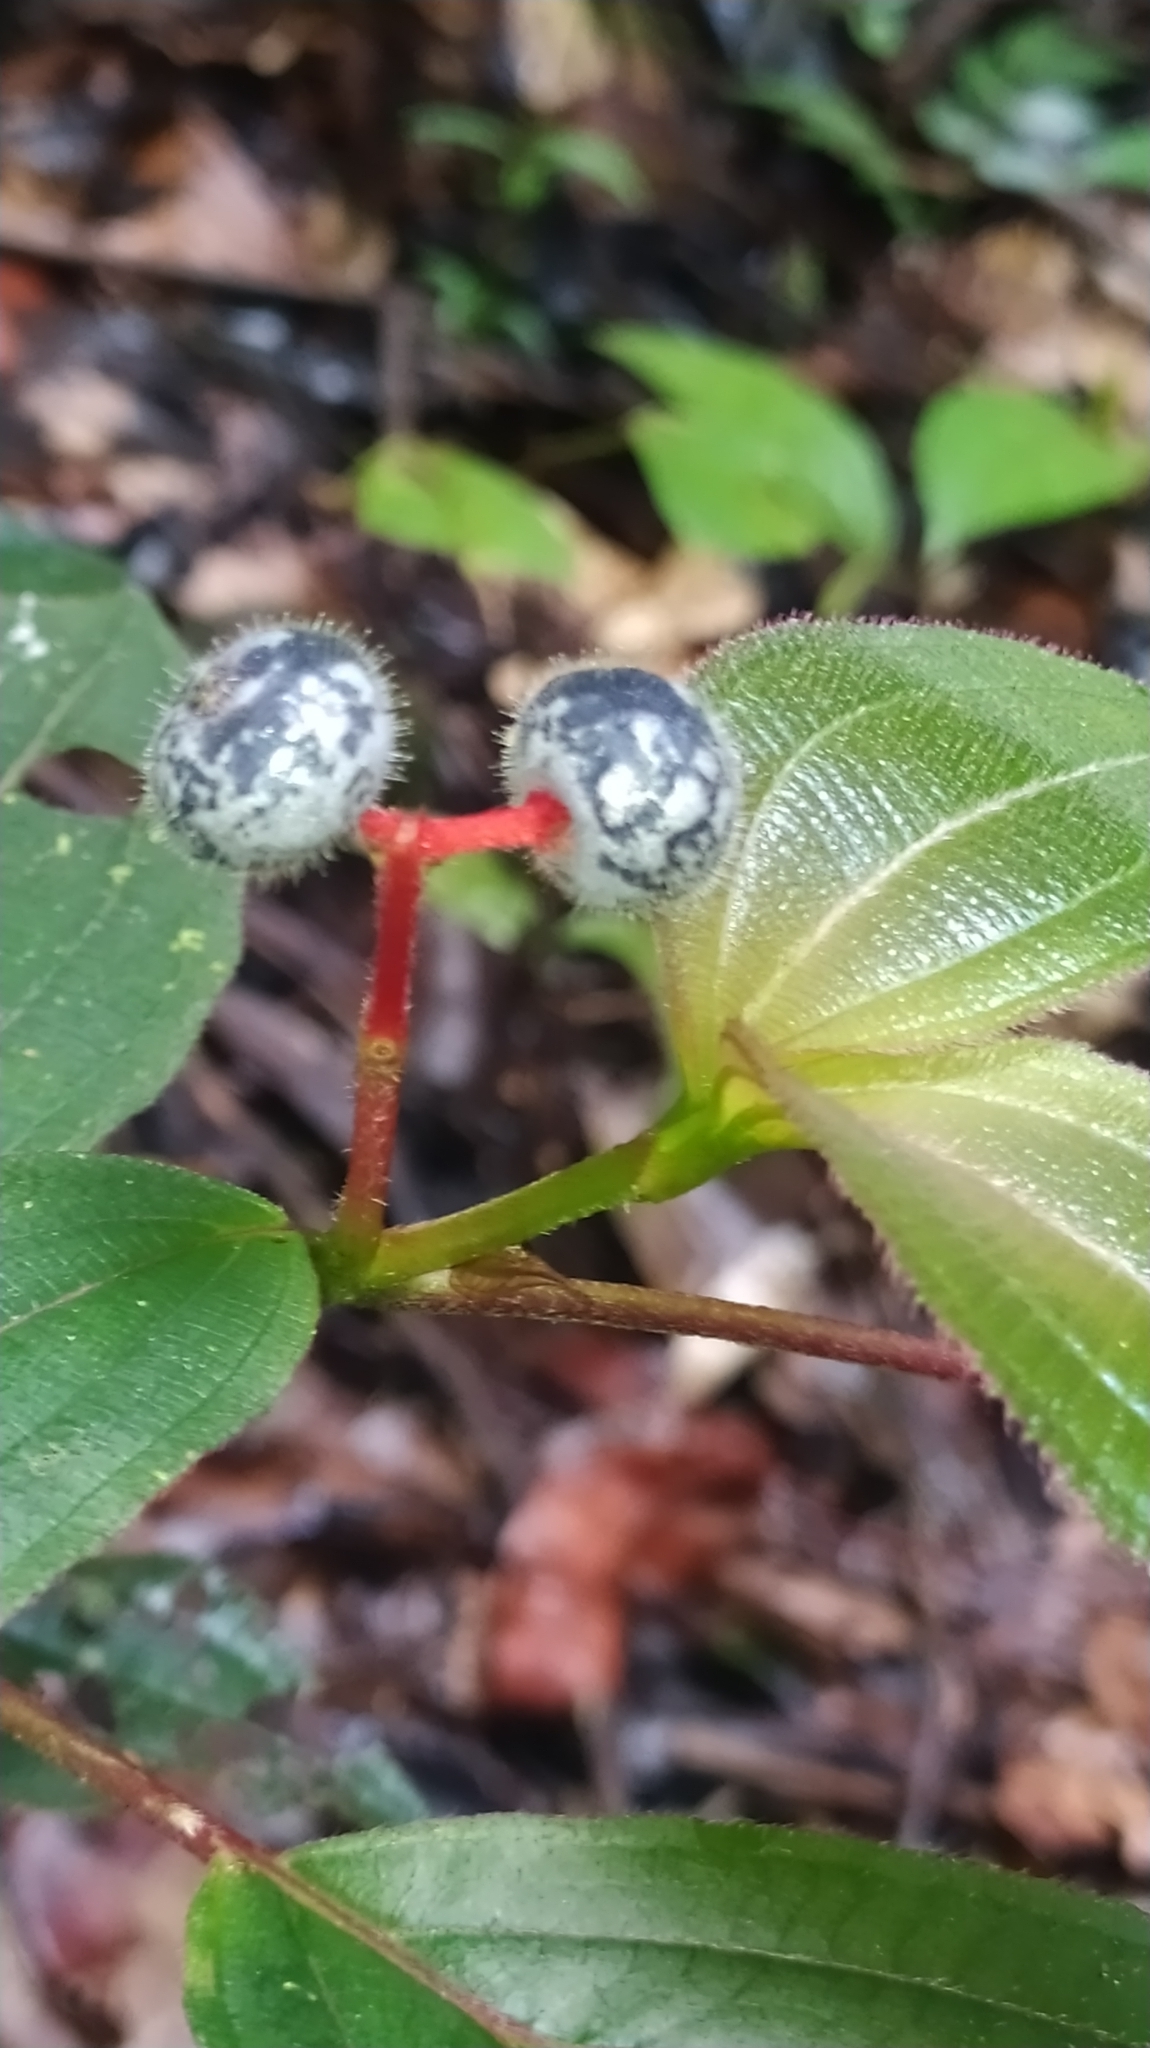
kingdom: Plantae
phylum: Tracheophyta
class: Magnoliopsida
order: Myrtales
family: Melastomataceae
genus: Miconia
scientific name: Miconia ceramicarpa
